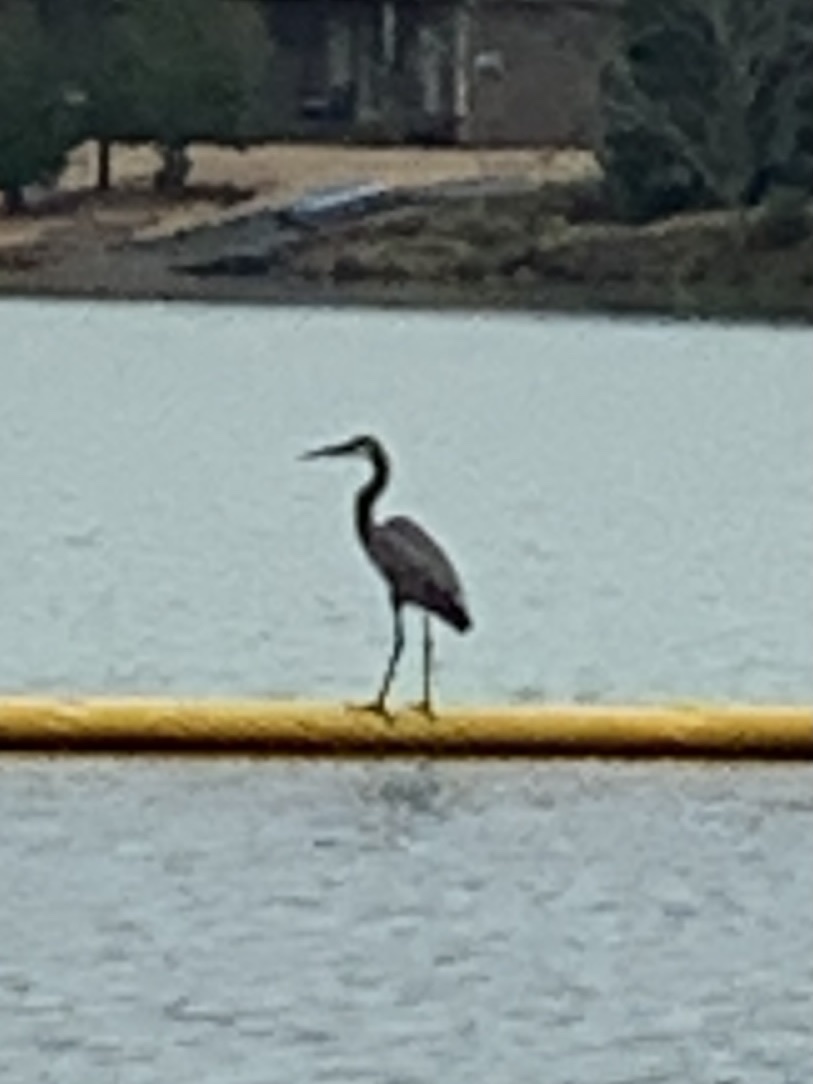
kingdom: Animalia
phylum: Chordata
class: Aves
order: Pelecaniformes
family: Ardeidae
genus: Ardea
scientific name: Ardea herodias
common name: Great blue heron
